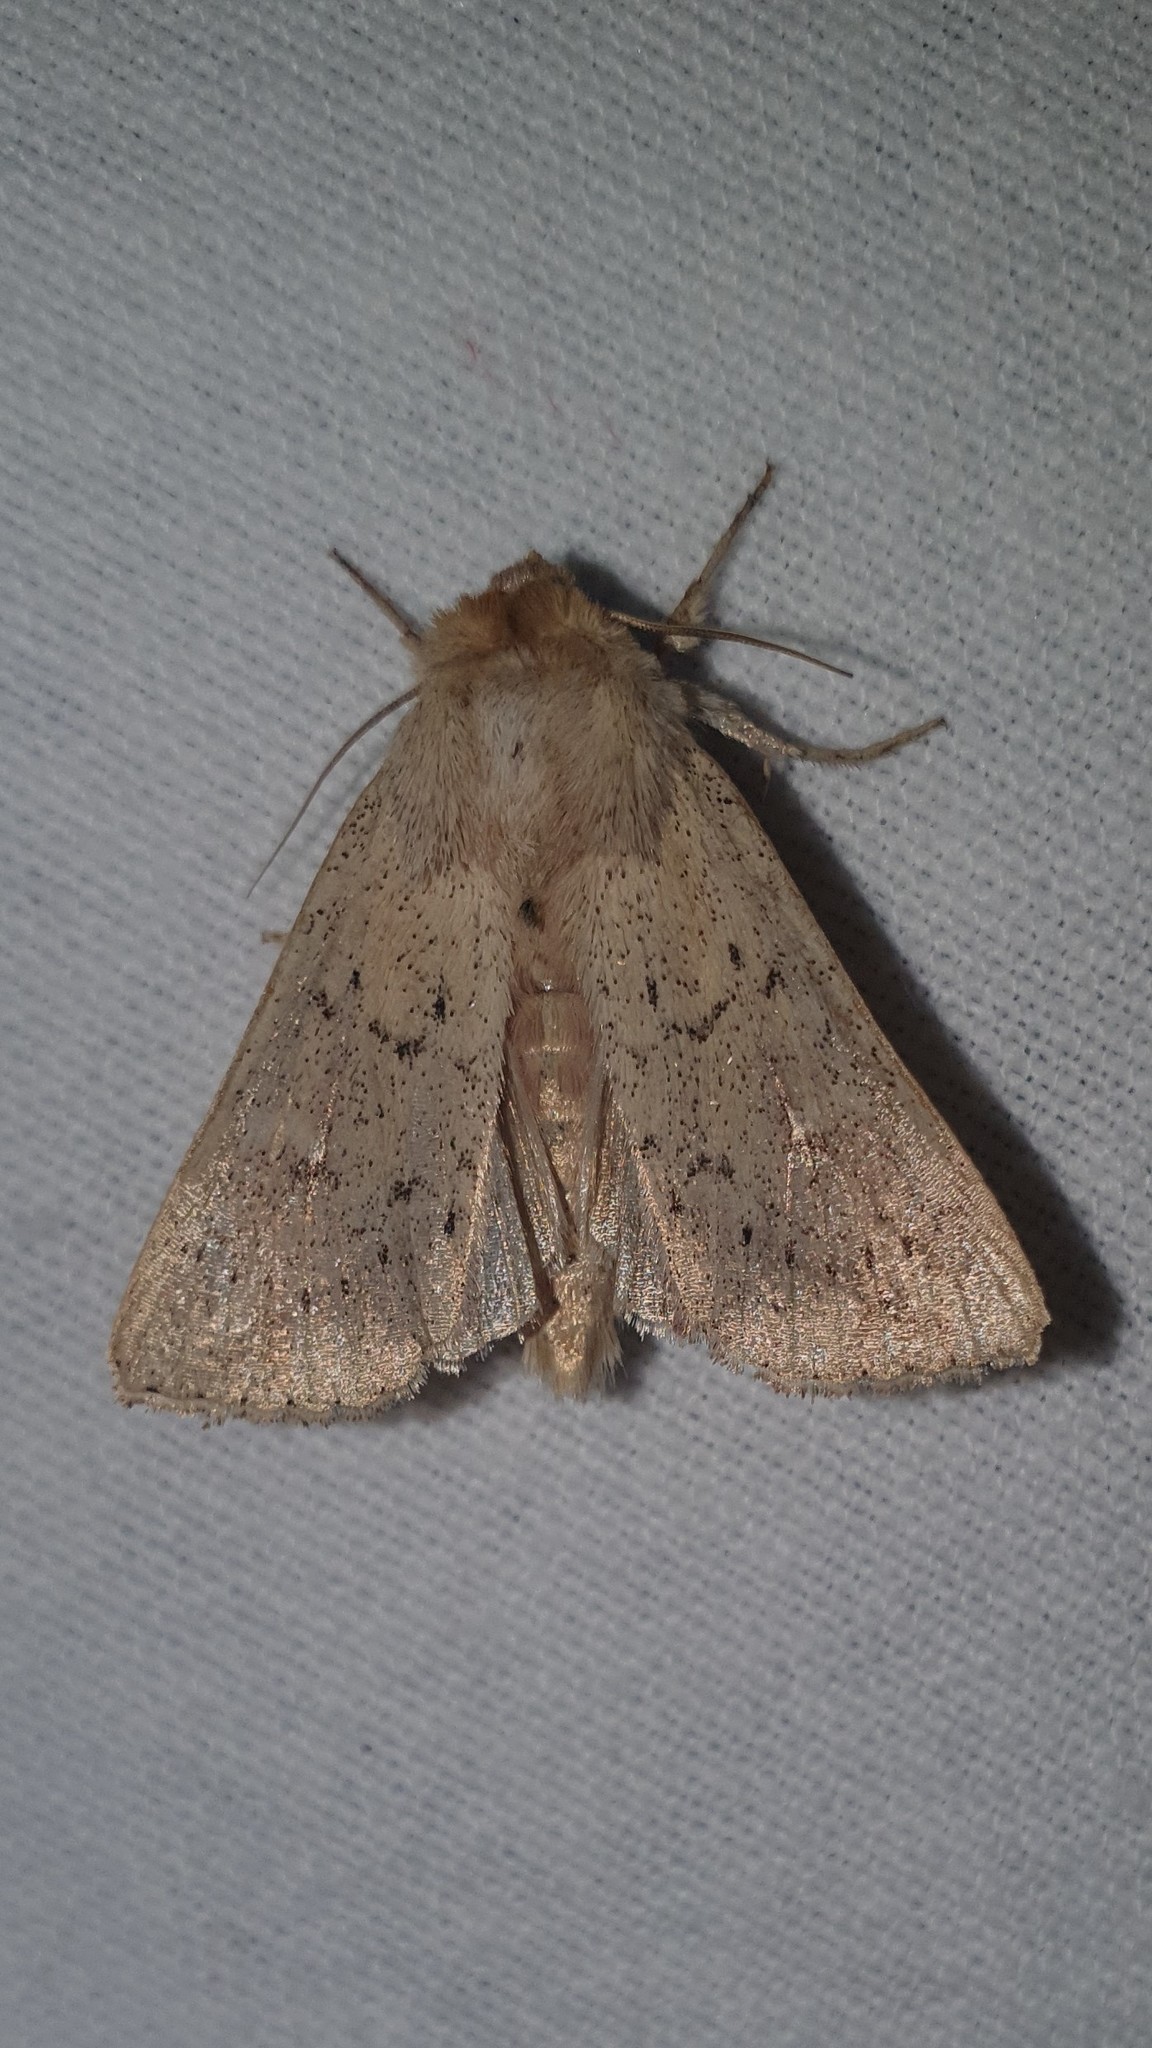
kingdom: Animalia
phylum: Arthropoda
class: Insecta
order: Lepidoptera
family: Noctuidae
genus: Mythimna
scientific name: Mythimna ferrago
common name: Clay
